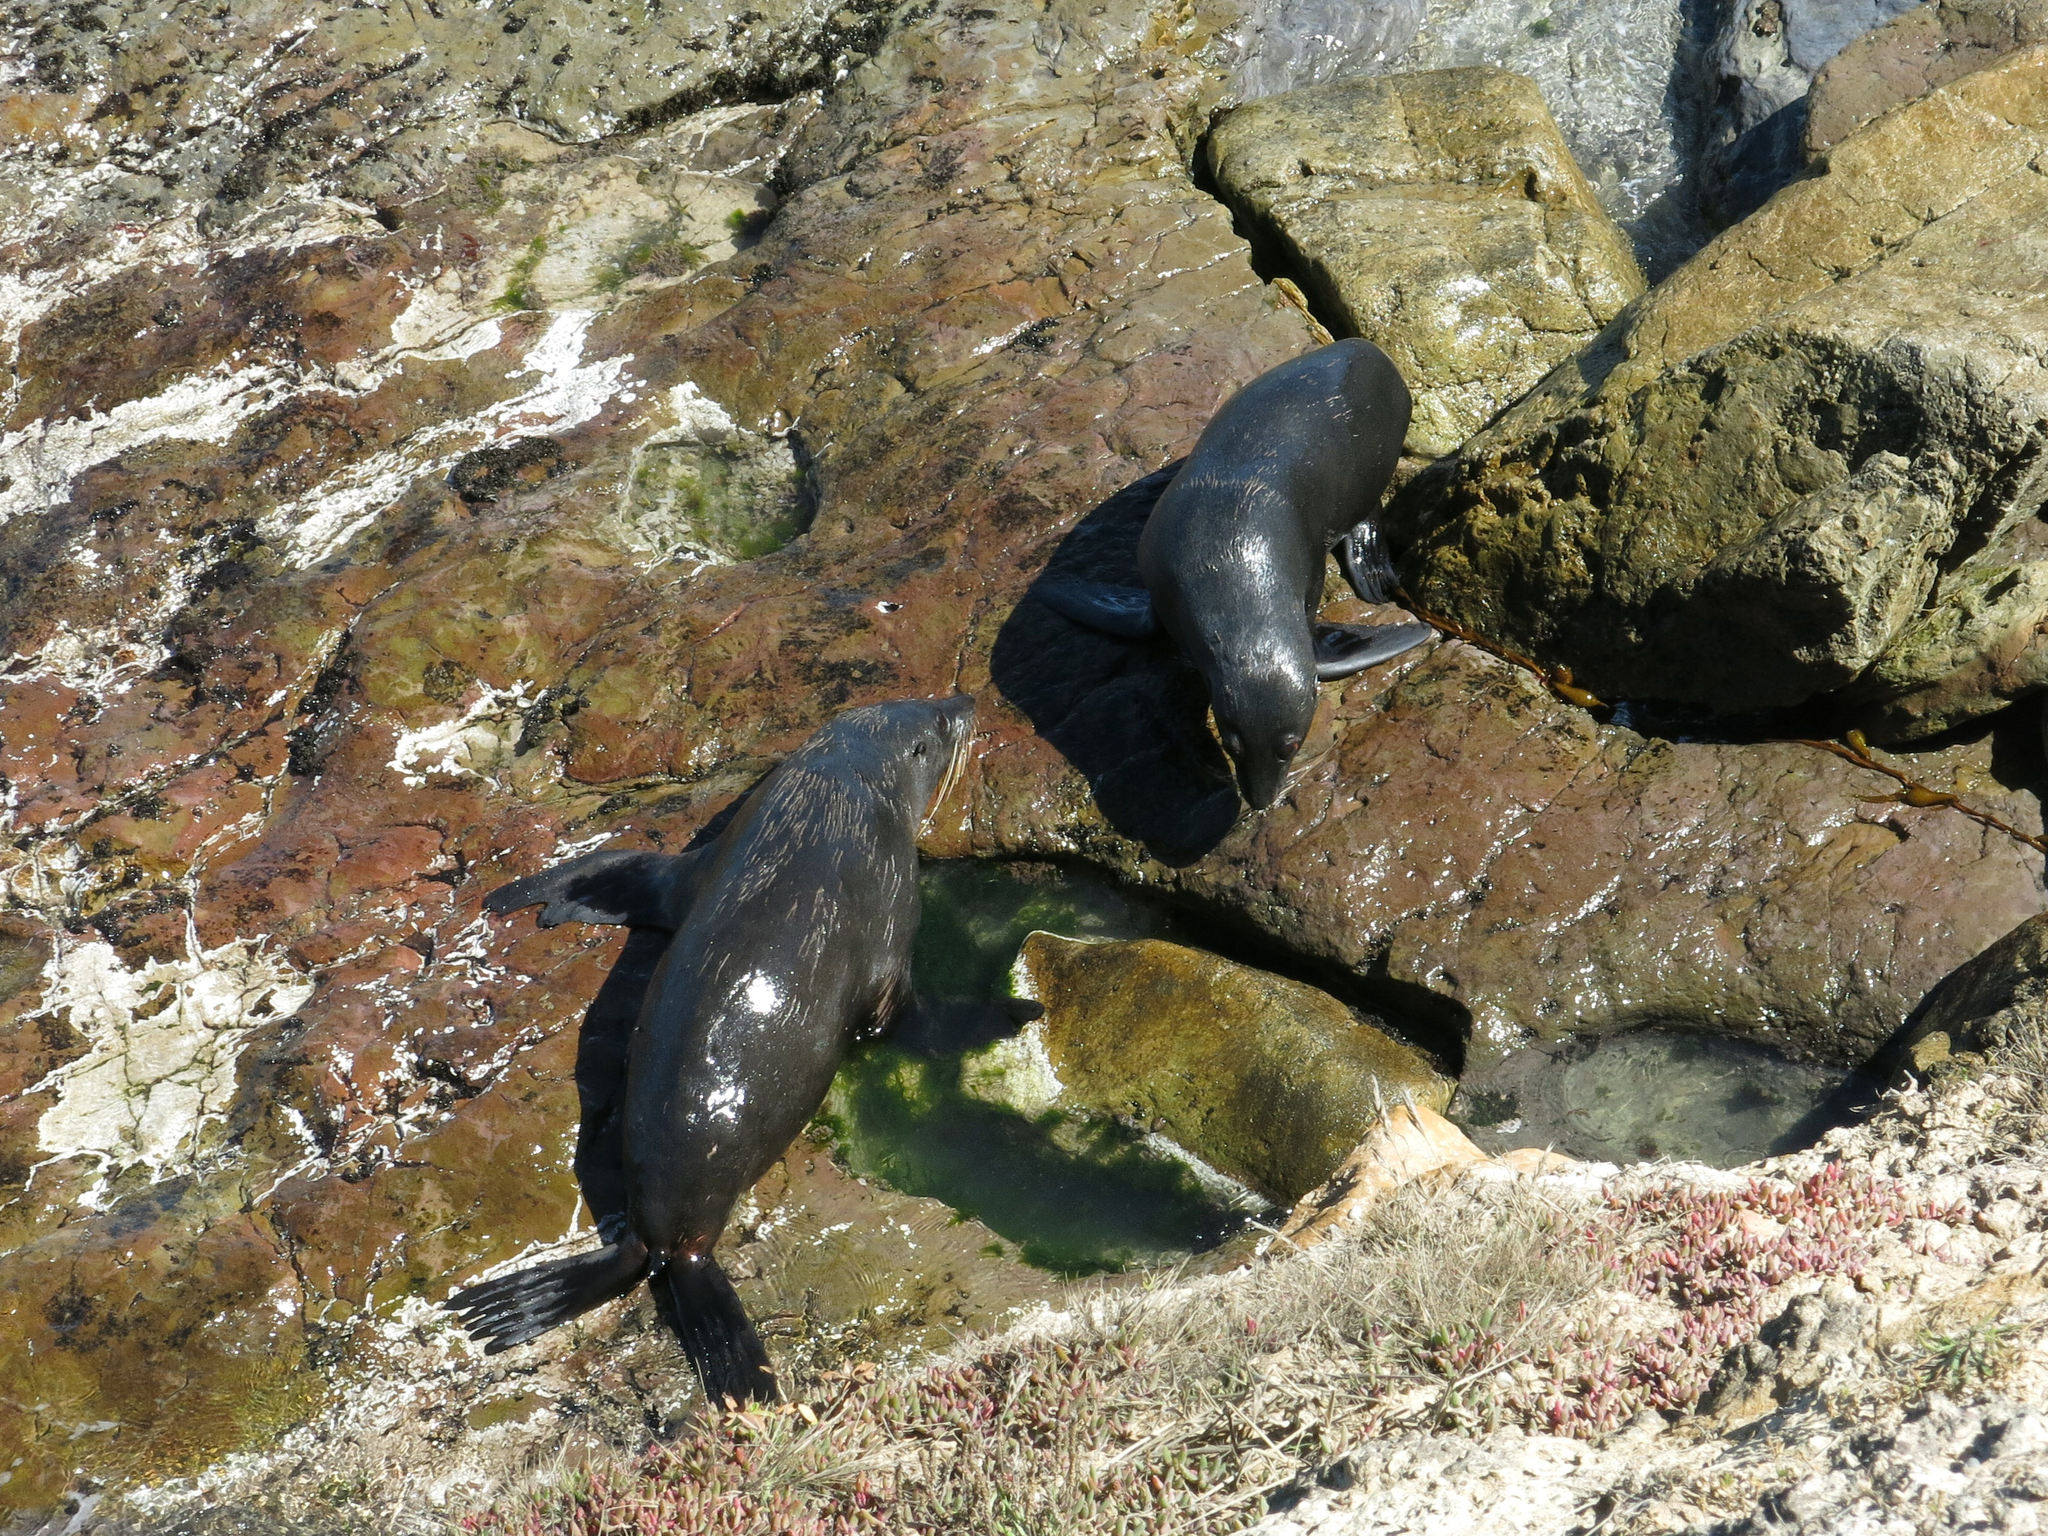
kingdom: Animalia
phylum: Chordata
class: Mammalia
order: Carnivora
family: Otariidae
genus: Arctocephalus
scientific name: Arctocephalus forsteri
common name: New zealand fur seal
